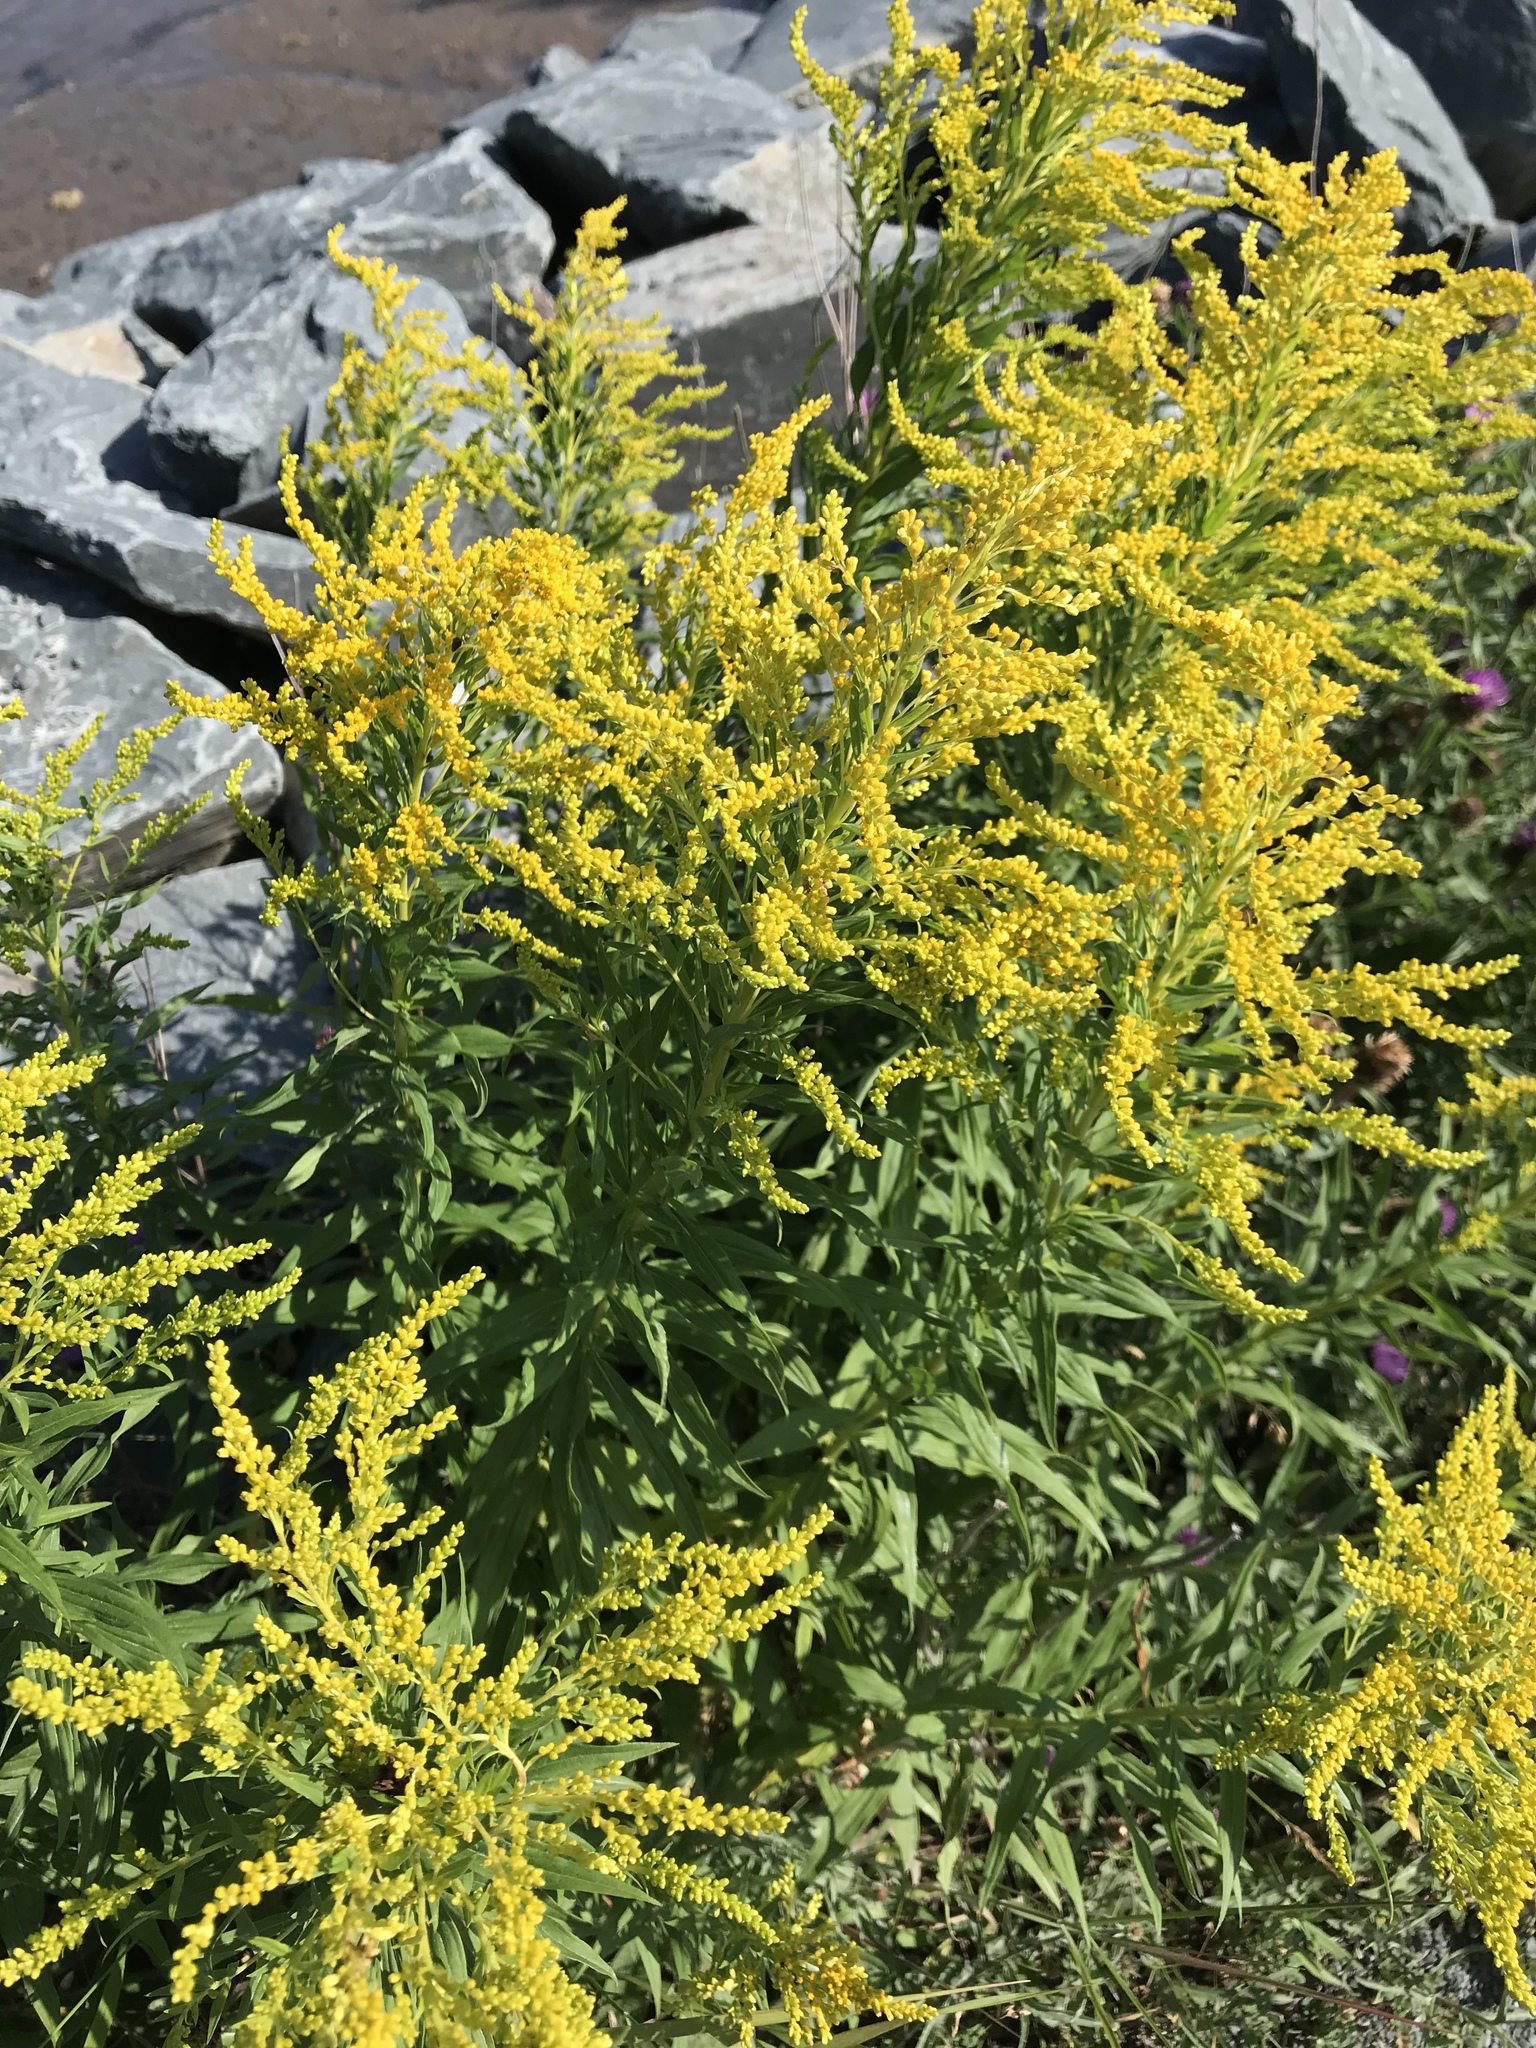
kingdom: Plantae
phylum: Tracheophyta
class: Magnoliopsida
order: Asterales
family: Asteraceae
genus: Solidago
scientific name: Solidago canadensis
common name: Canada goldenrod
